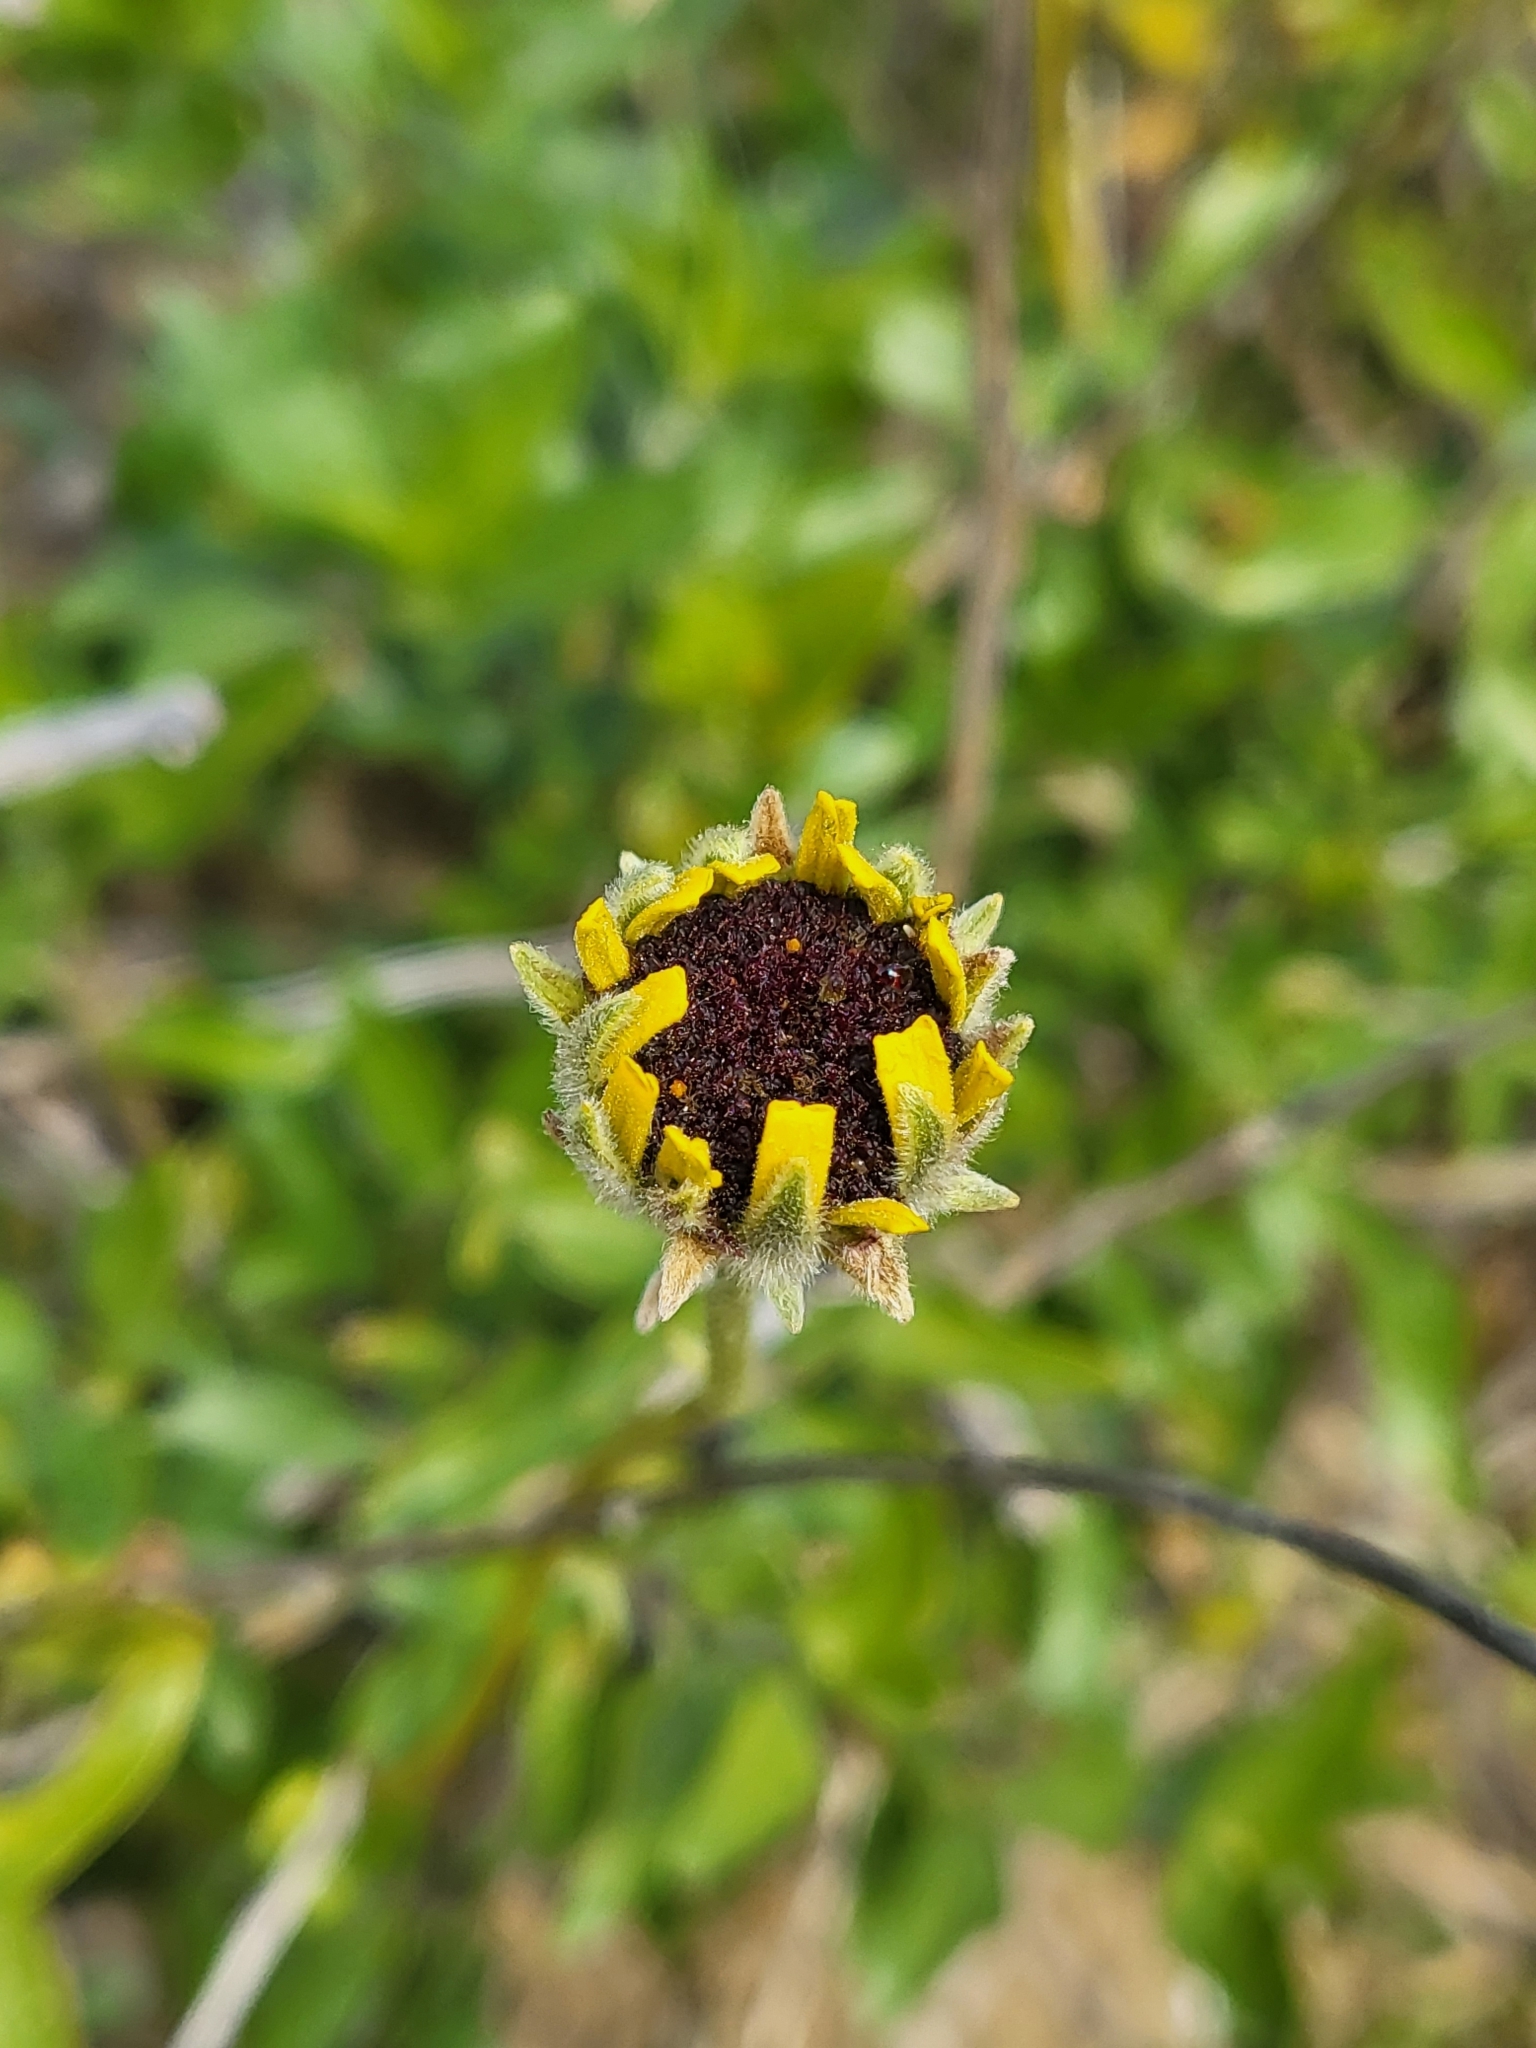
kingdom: Plantae
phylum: Tracheophyta
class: Magnoliopsida
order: Asterales
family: Asteraceae
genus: Encelia
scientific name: Encelia californica
